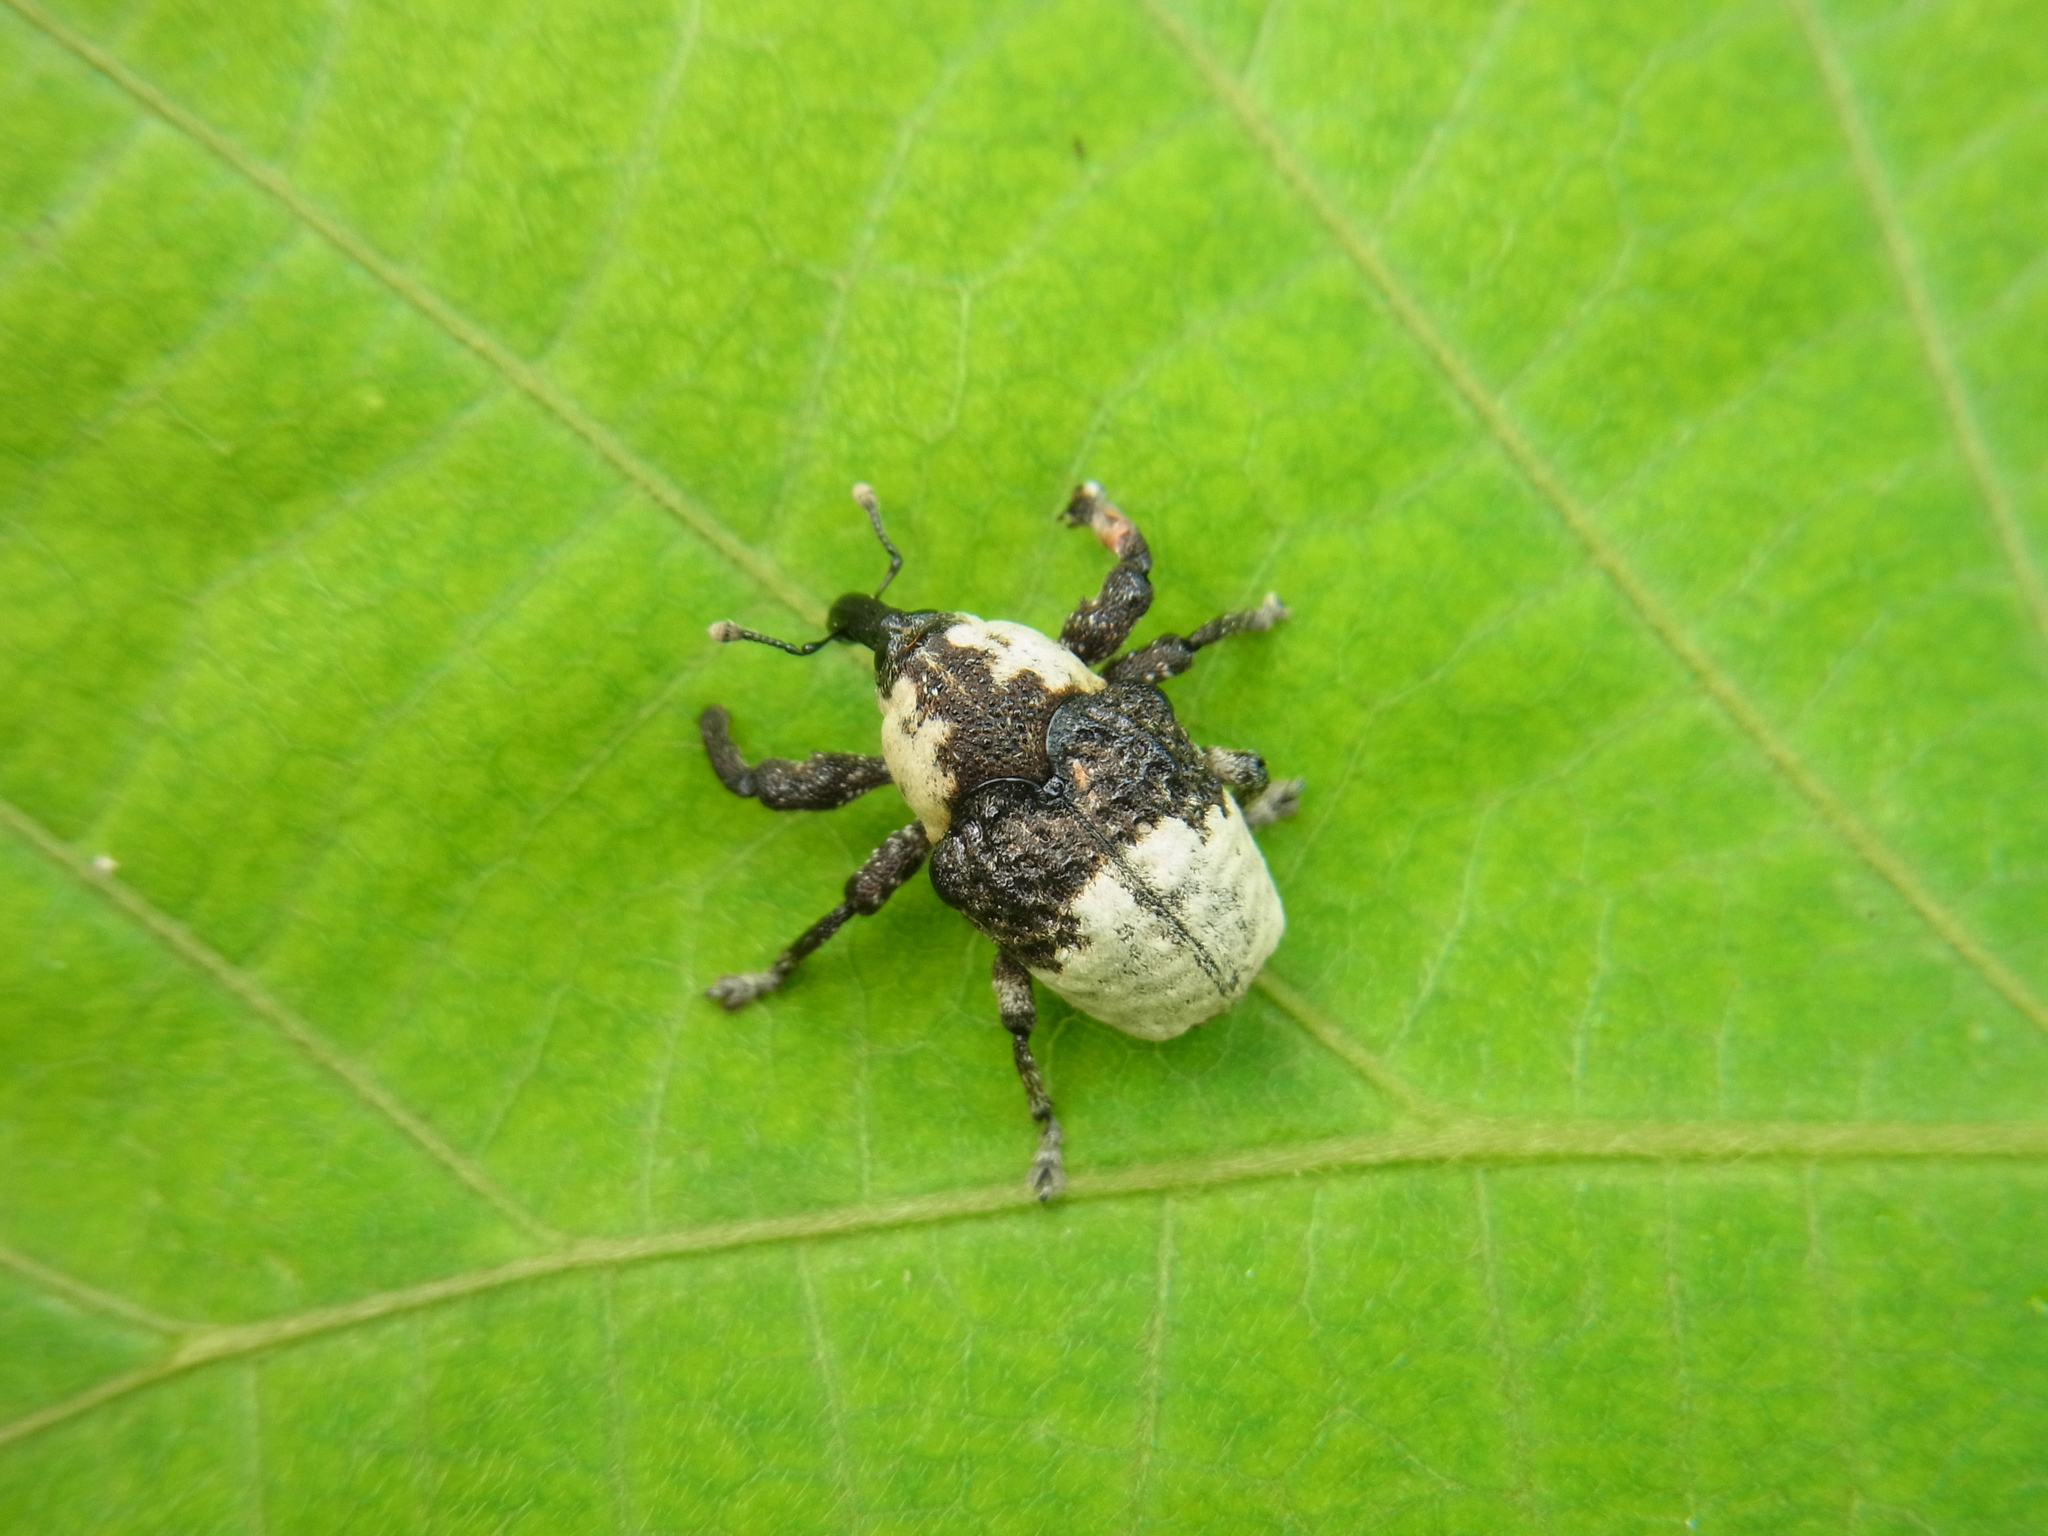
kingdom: Animalia
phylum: Arthropoda
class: Insecta
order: Coleoptera
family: Curculionidae
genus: Alcides
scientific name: Alcides trifidus
